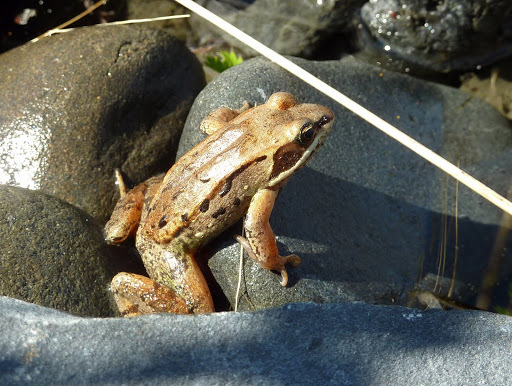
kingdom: Animalia
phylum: Chordata
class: Amphibia
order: Anura
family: Ranidae
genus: Lithobates
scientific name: Lithobates sylvaticus
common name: Wood frog
